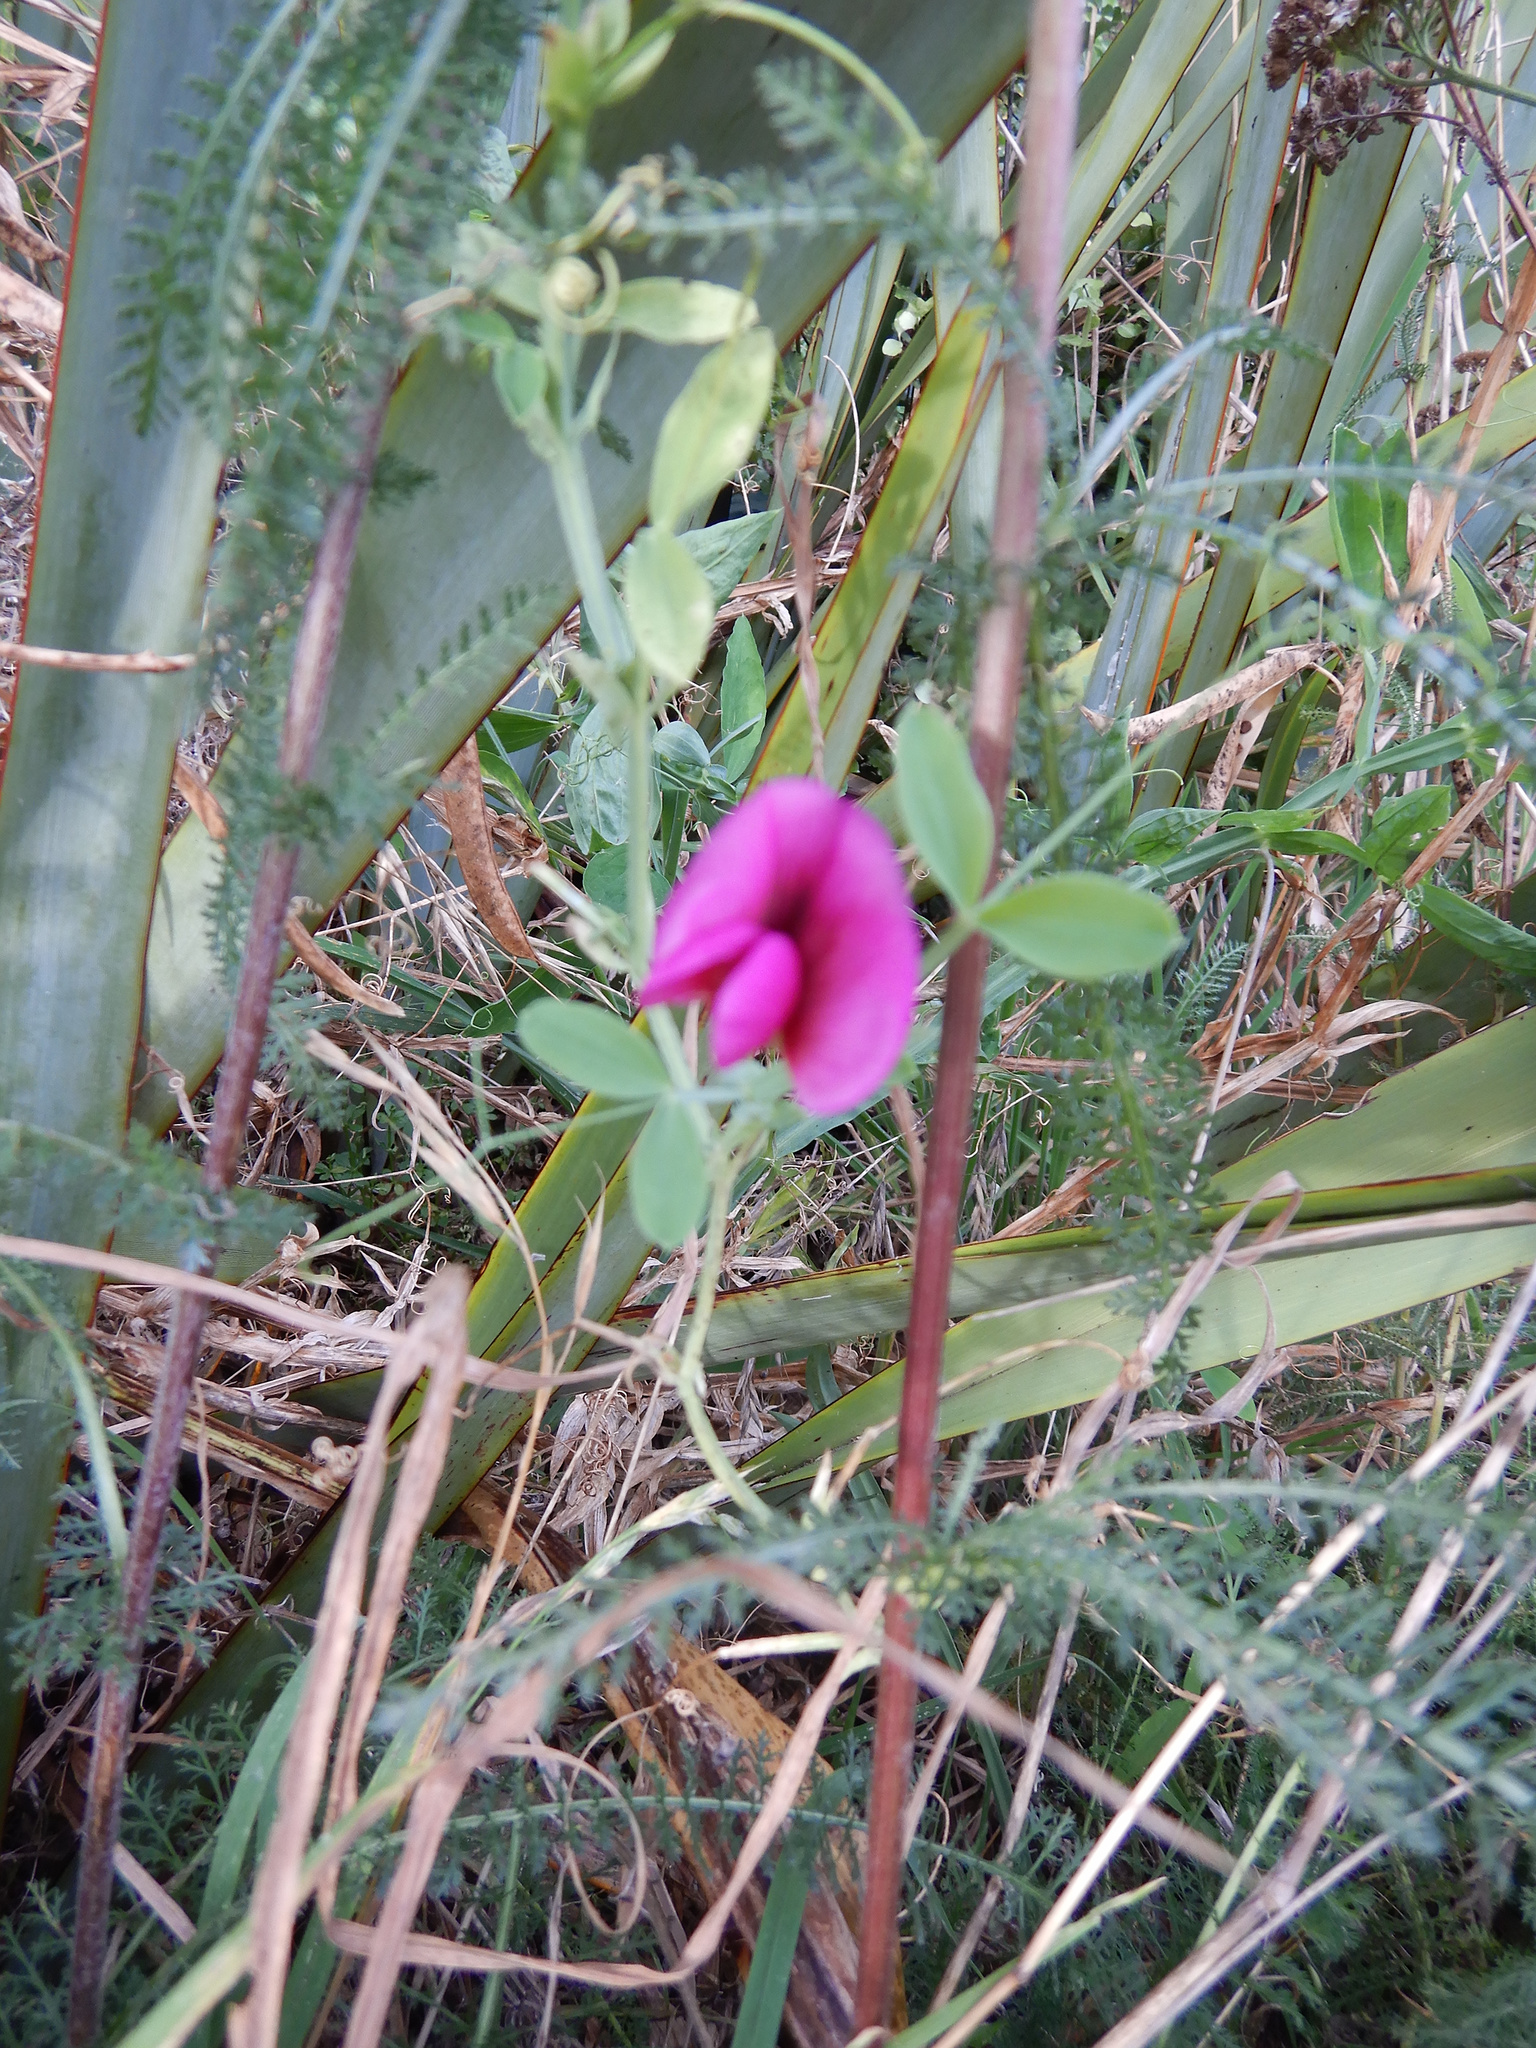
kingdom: Plantae
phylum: Tracheophyta
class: Magnoliopsida
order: Fabales
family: Fabaceae
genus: Lathyrus
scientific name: Lathyrus tingitanus
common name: Tangier pea
